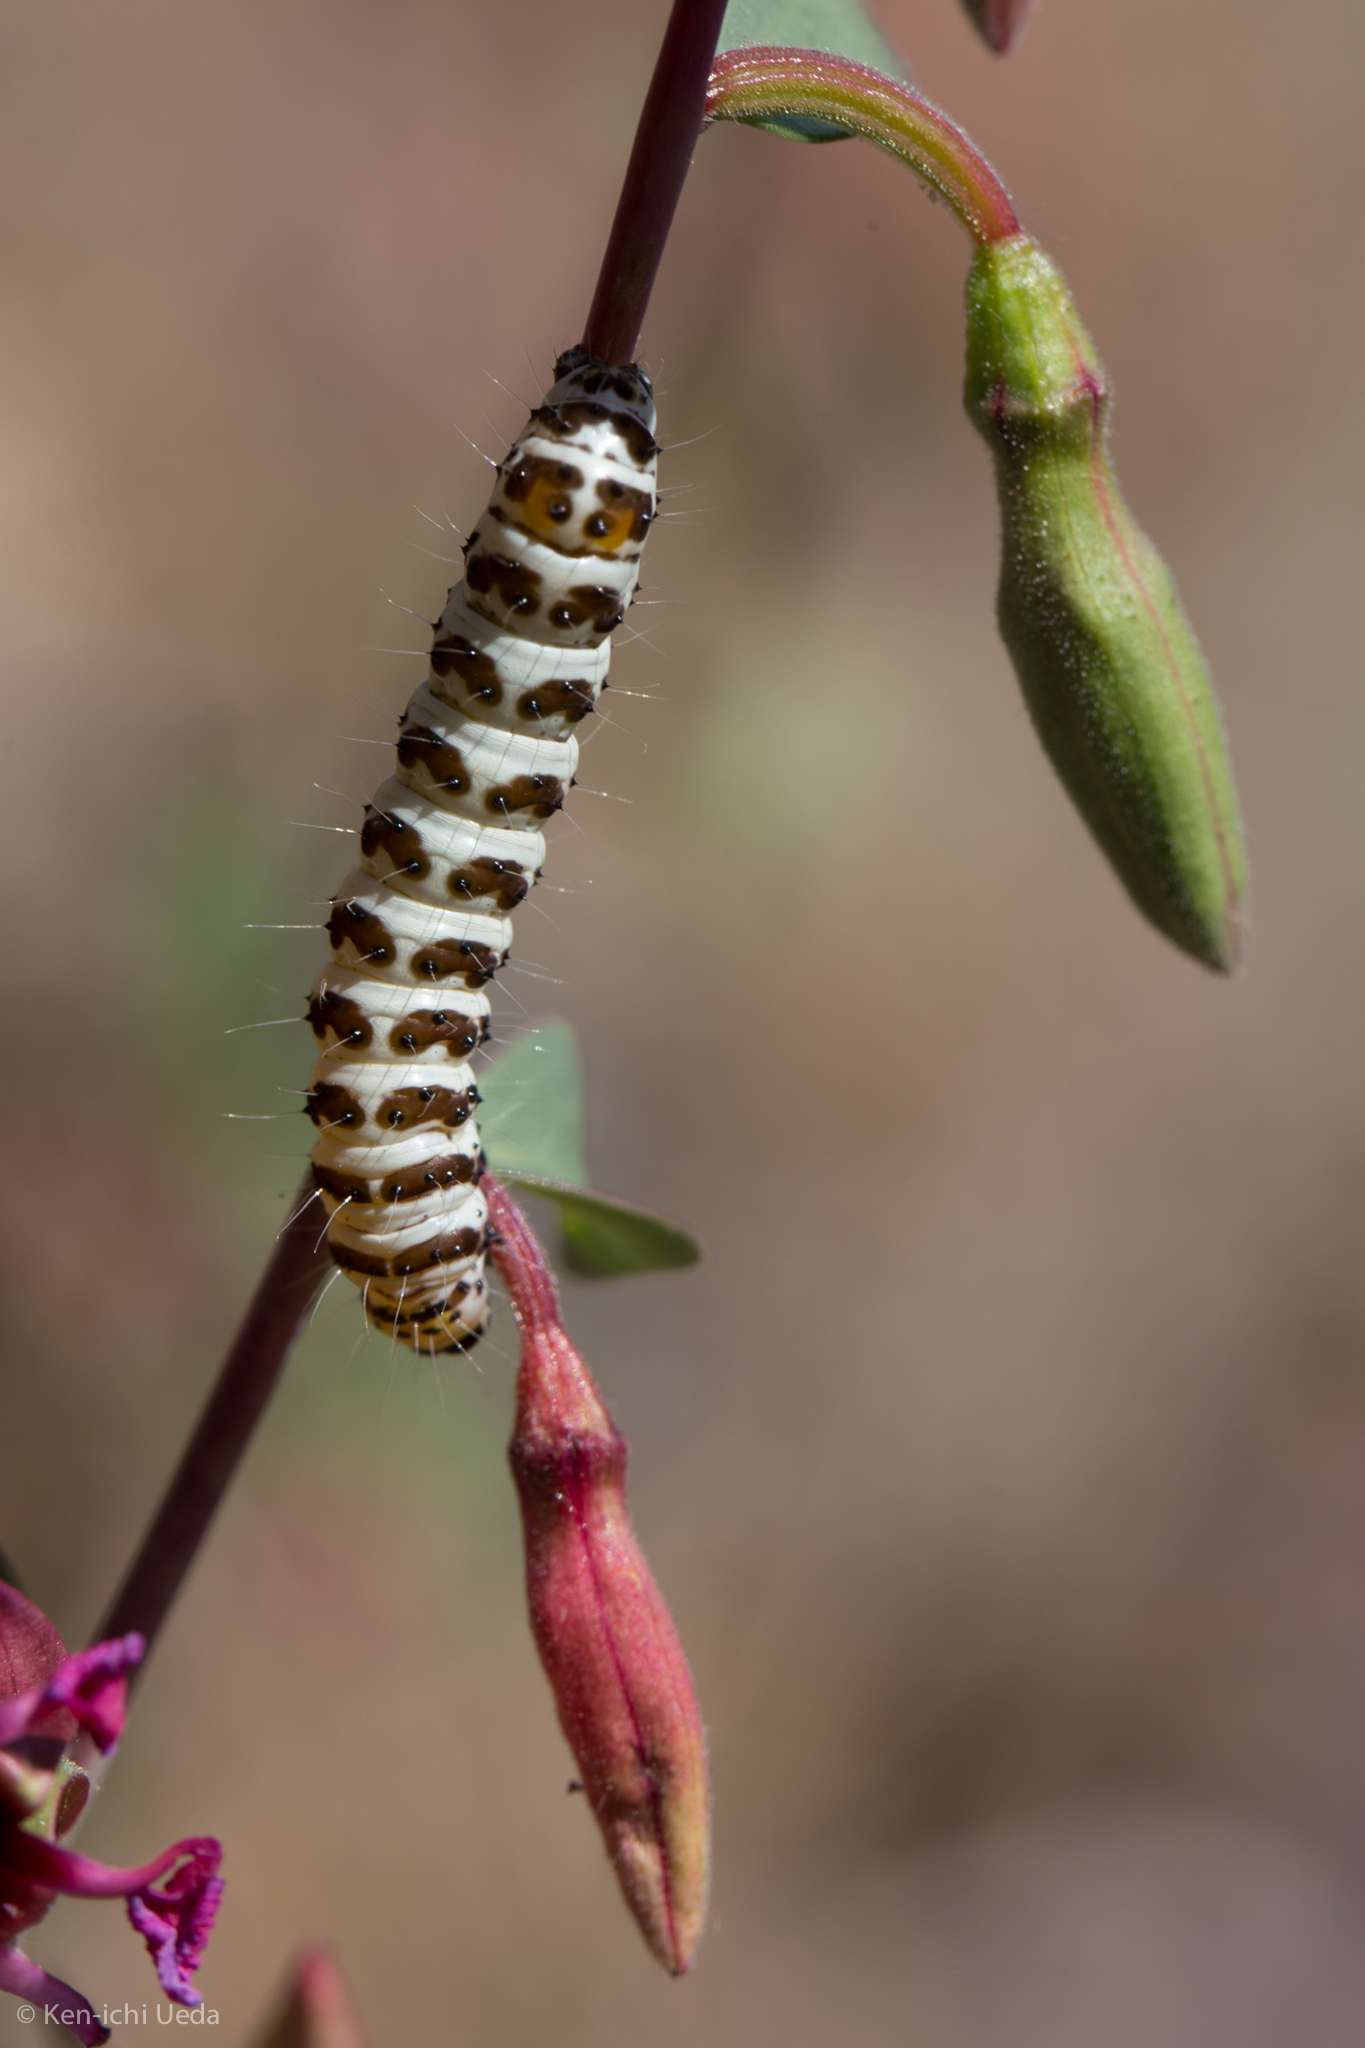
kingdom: Animalia
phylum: Arthropoda
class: Insecta
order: Lepidoptera
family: Noctuidae
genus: Alypia
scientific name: Alypia mariposa
